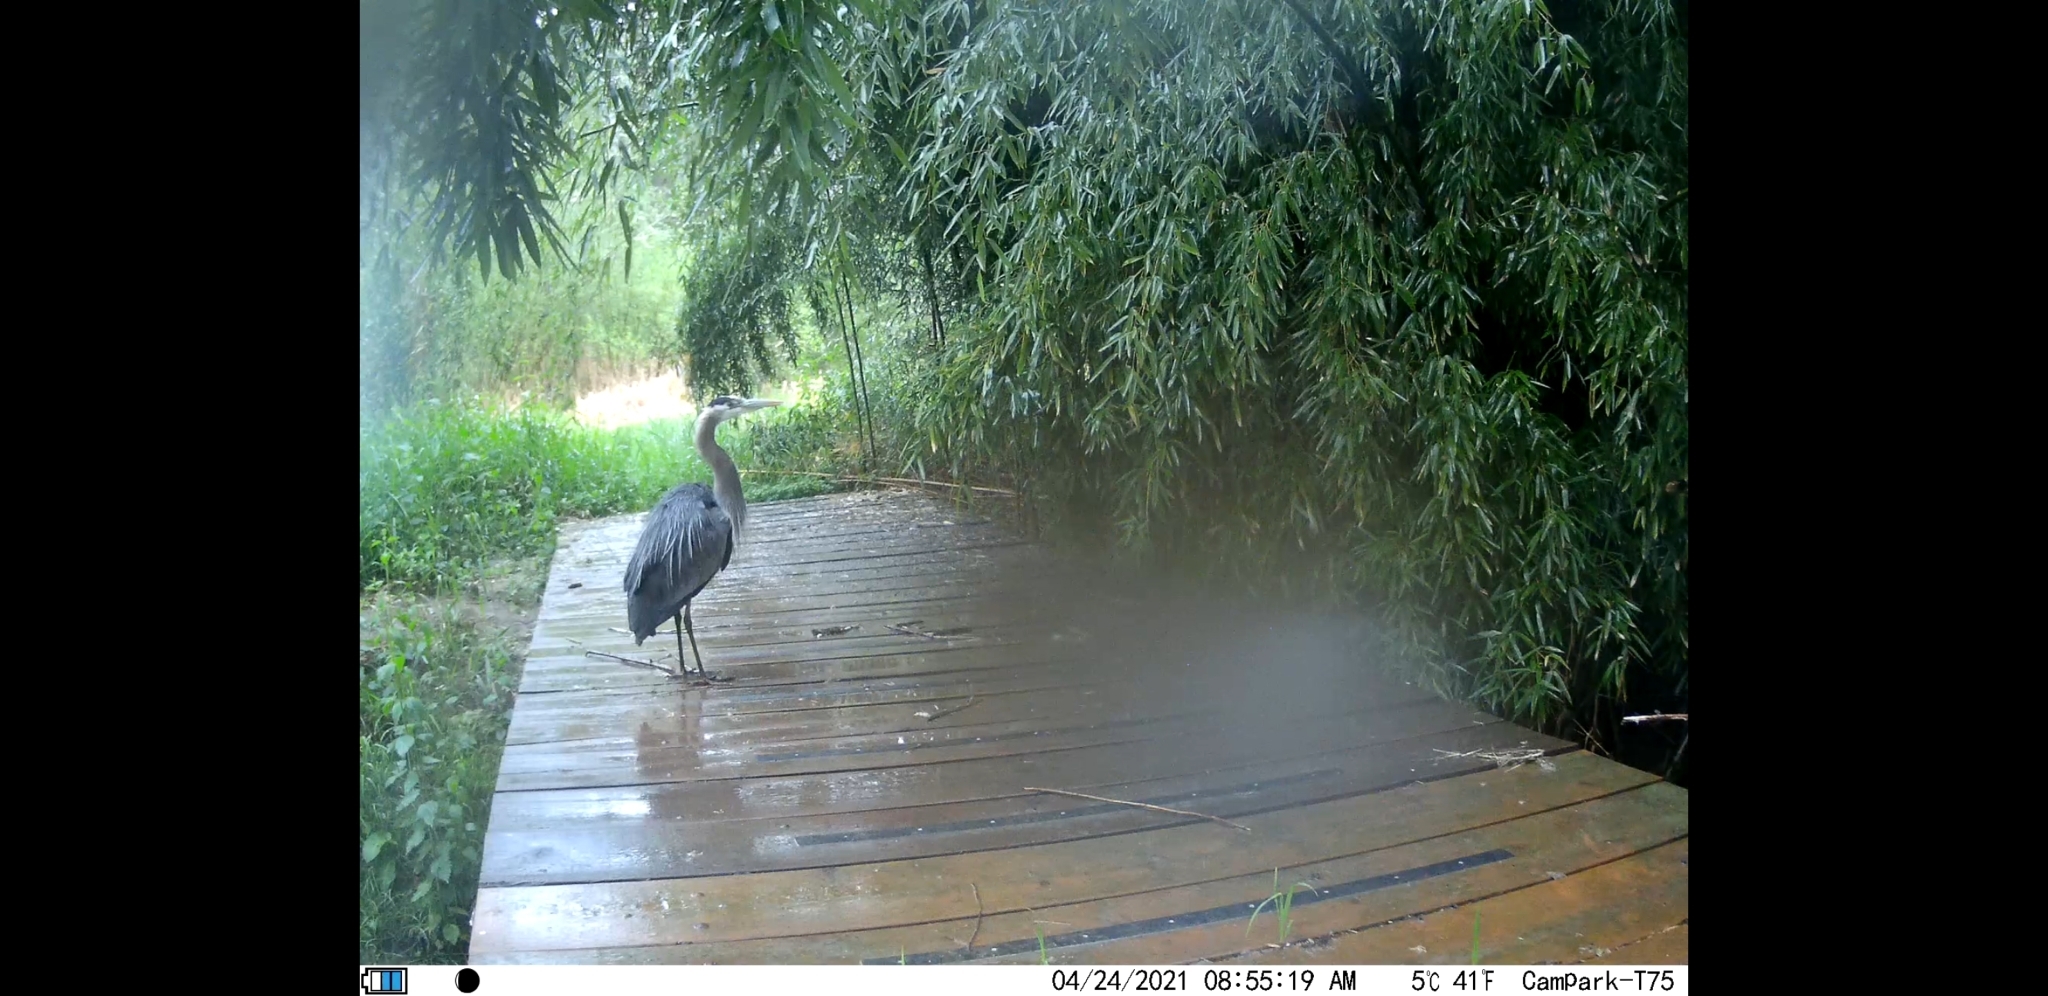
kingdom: Animalia
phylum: Chordata
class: Aves
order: Pelecaniformes
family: Ardeidae
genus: Ardea
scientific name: Ardea herodias
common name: Great blue heron
